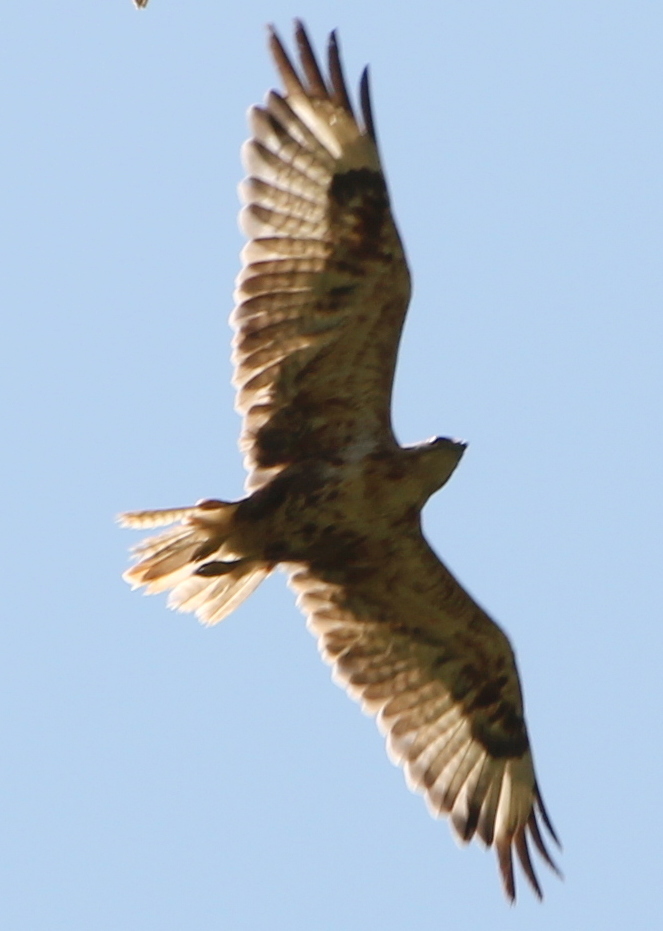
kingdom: Animalia
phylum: Chordata
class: Aves
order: Accipitriformes
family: Accipitridae
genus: Buteo
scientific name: Buteo hemilasius
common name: Upland buzzard
